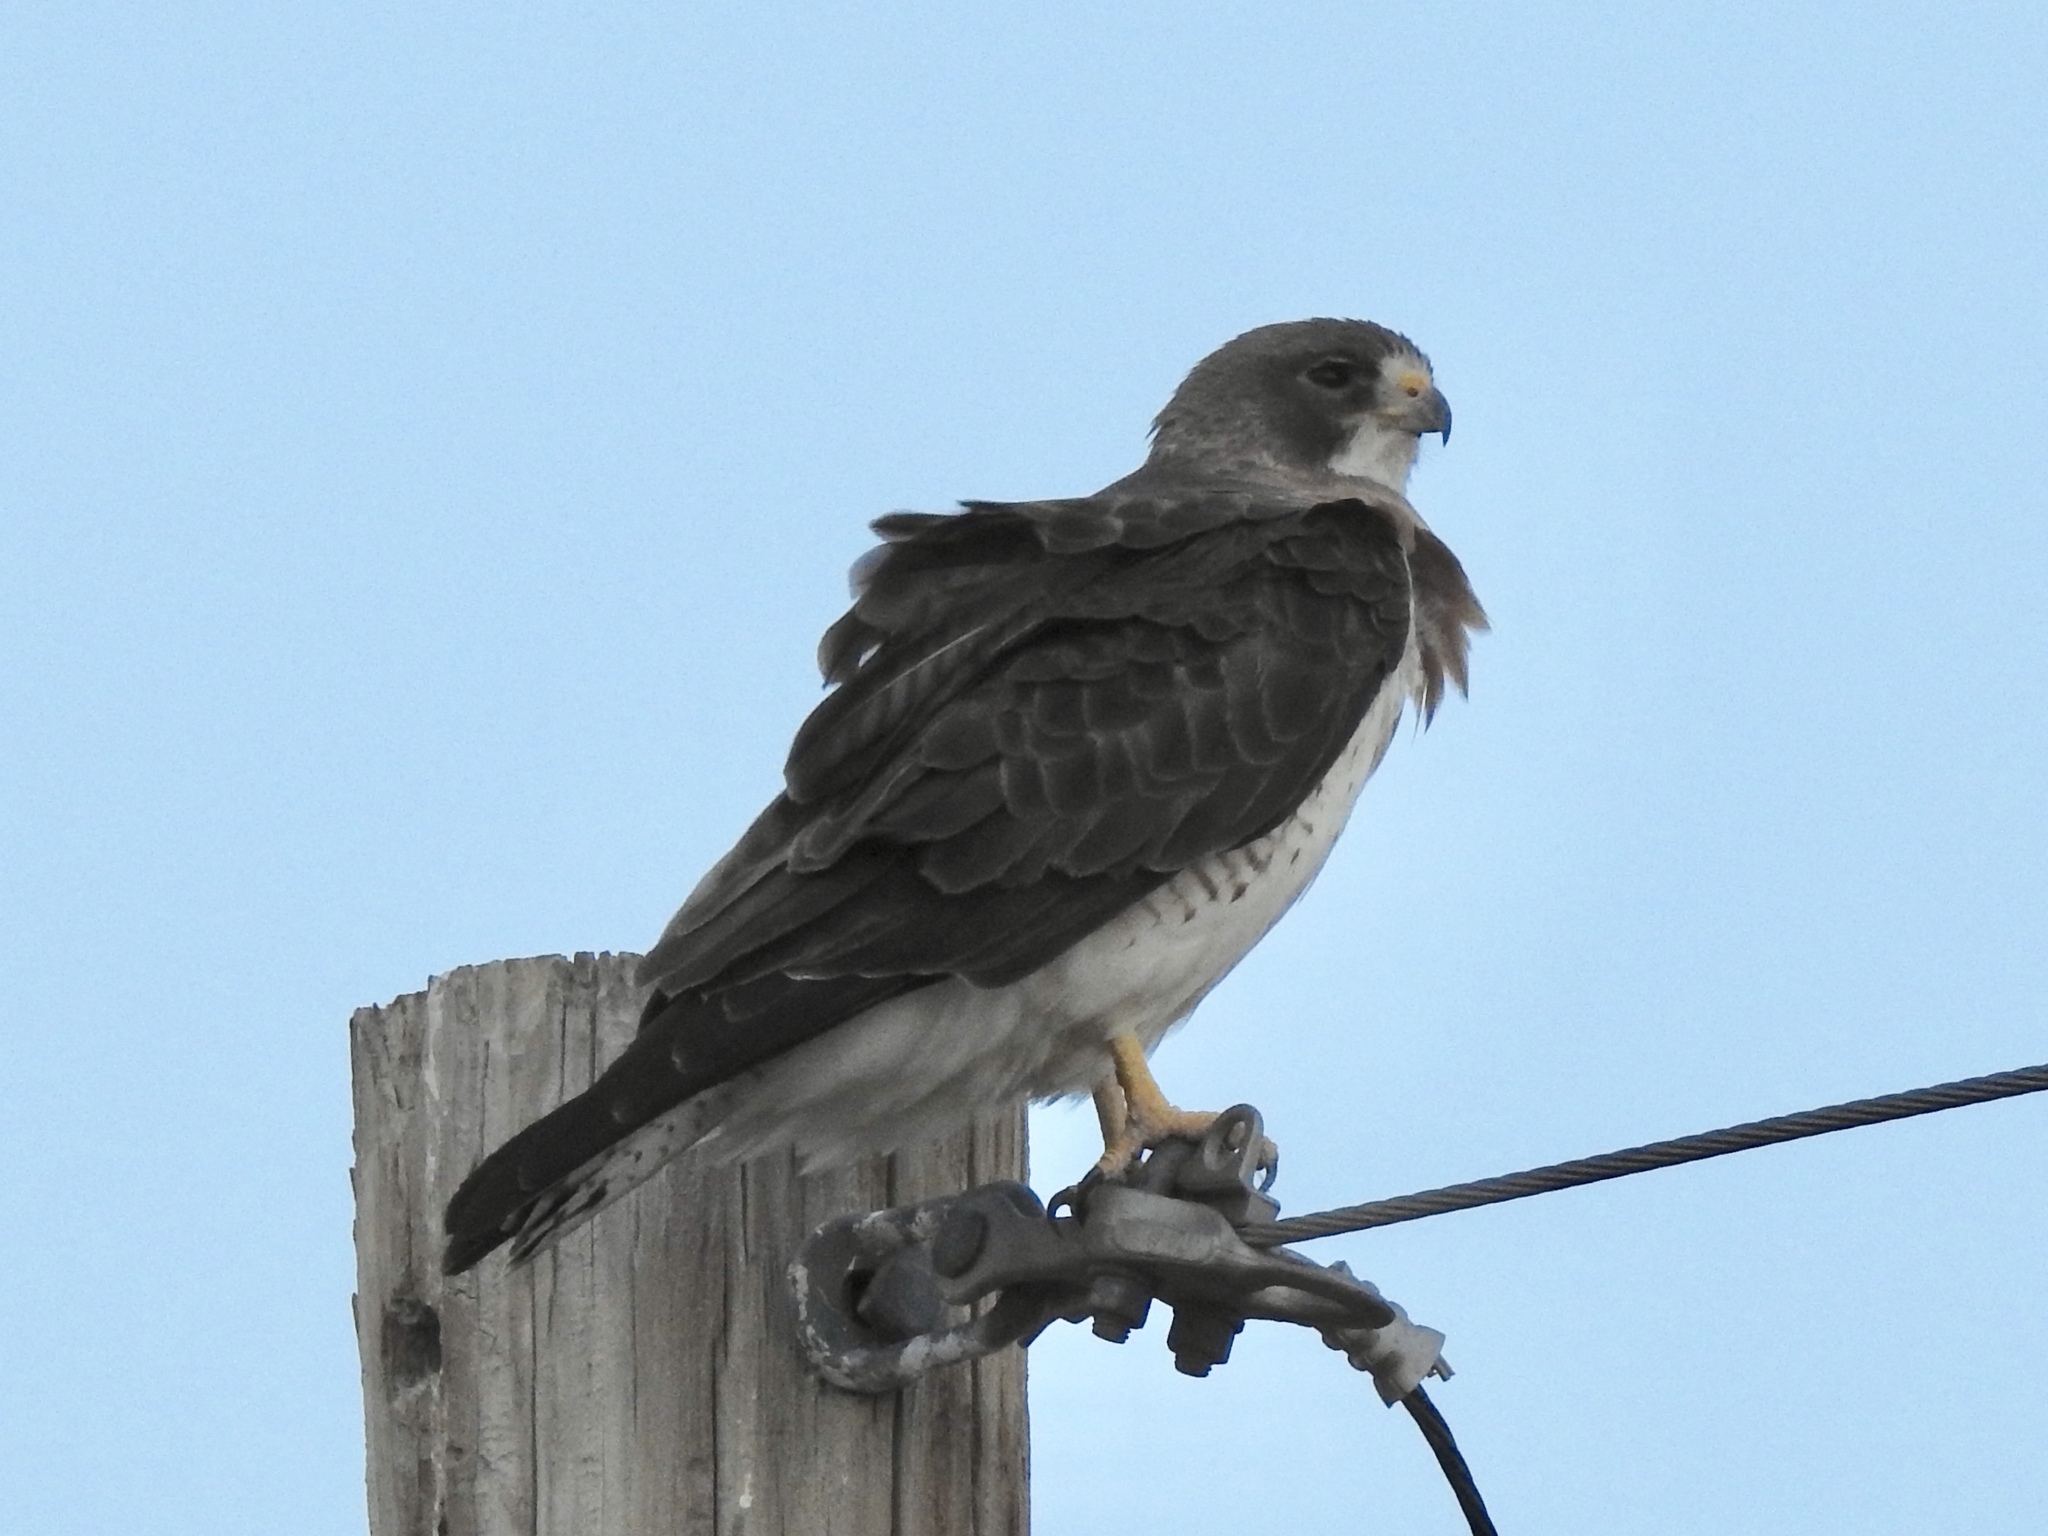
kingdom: Animalia
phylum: Chordata
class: Aves
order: Accipitriformes
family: Accipitridae
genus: Buteo
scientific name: Buteo swainsoni
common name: Swainson's hawk
